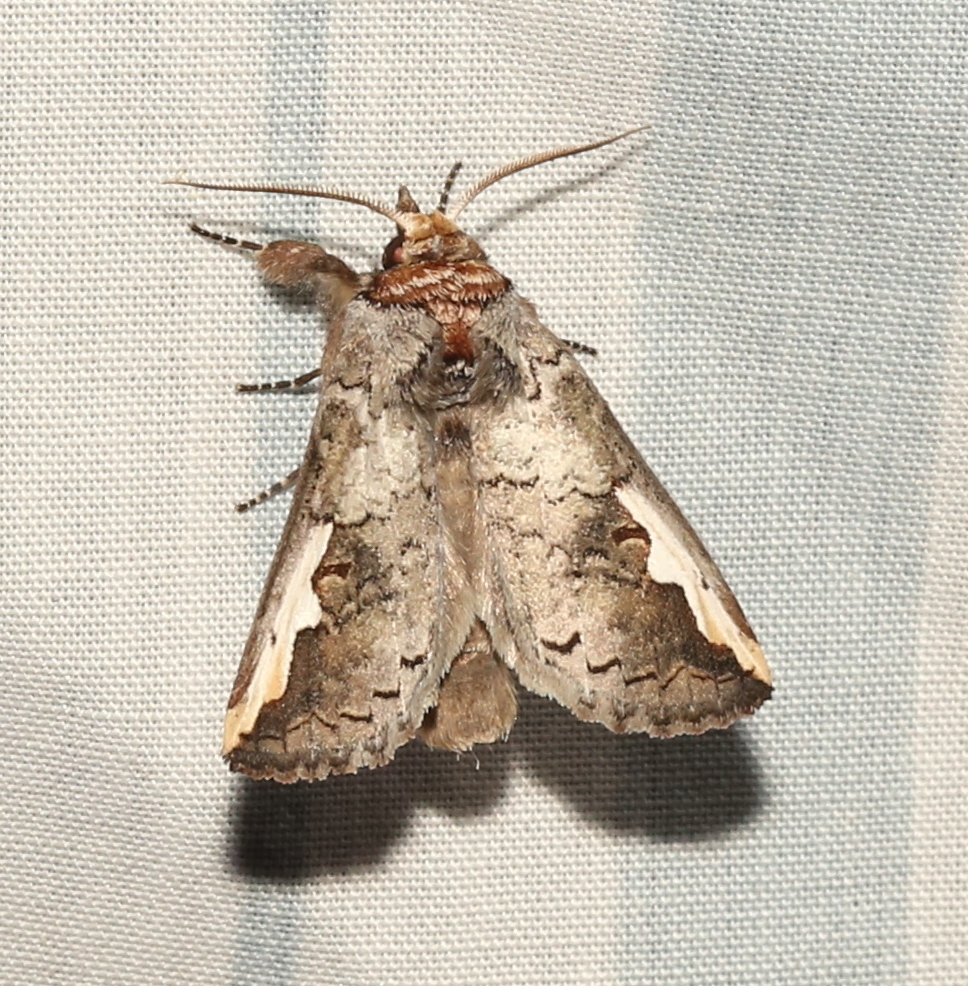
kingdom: Animalia
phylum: Arthropoda
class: Insecta
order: Lepidoptera
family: Notodontidae
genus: Symmerista
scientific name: Symmerista albifrons
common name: White-headed prominent
